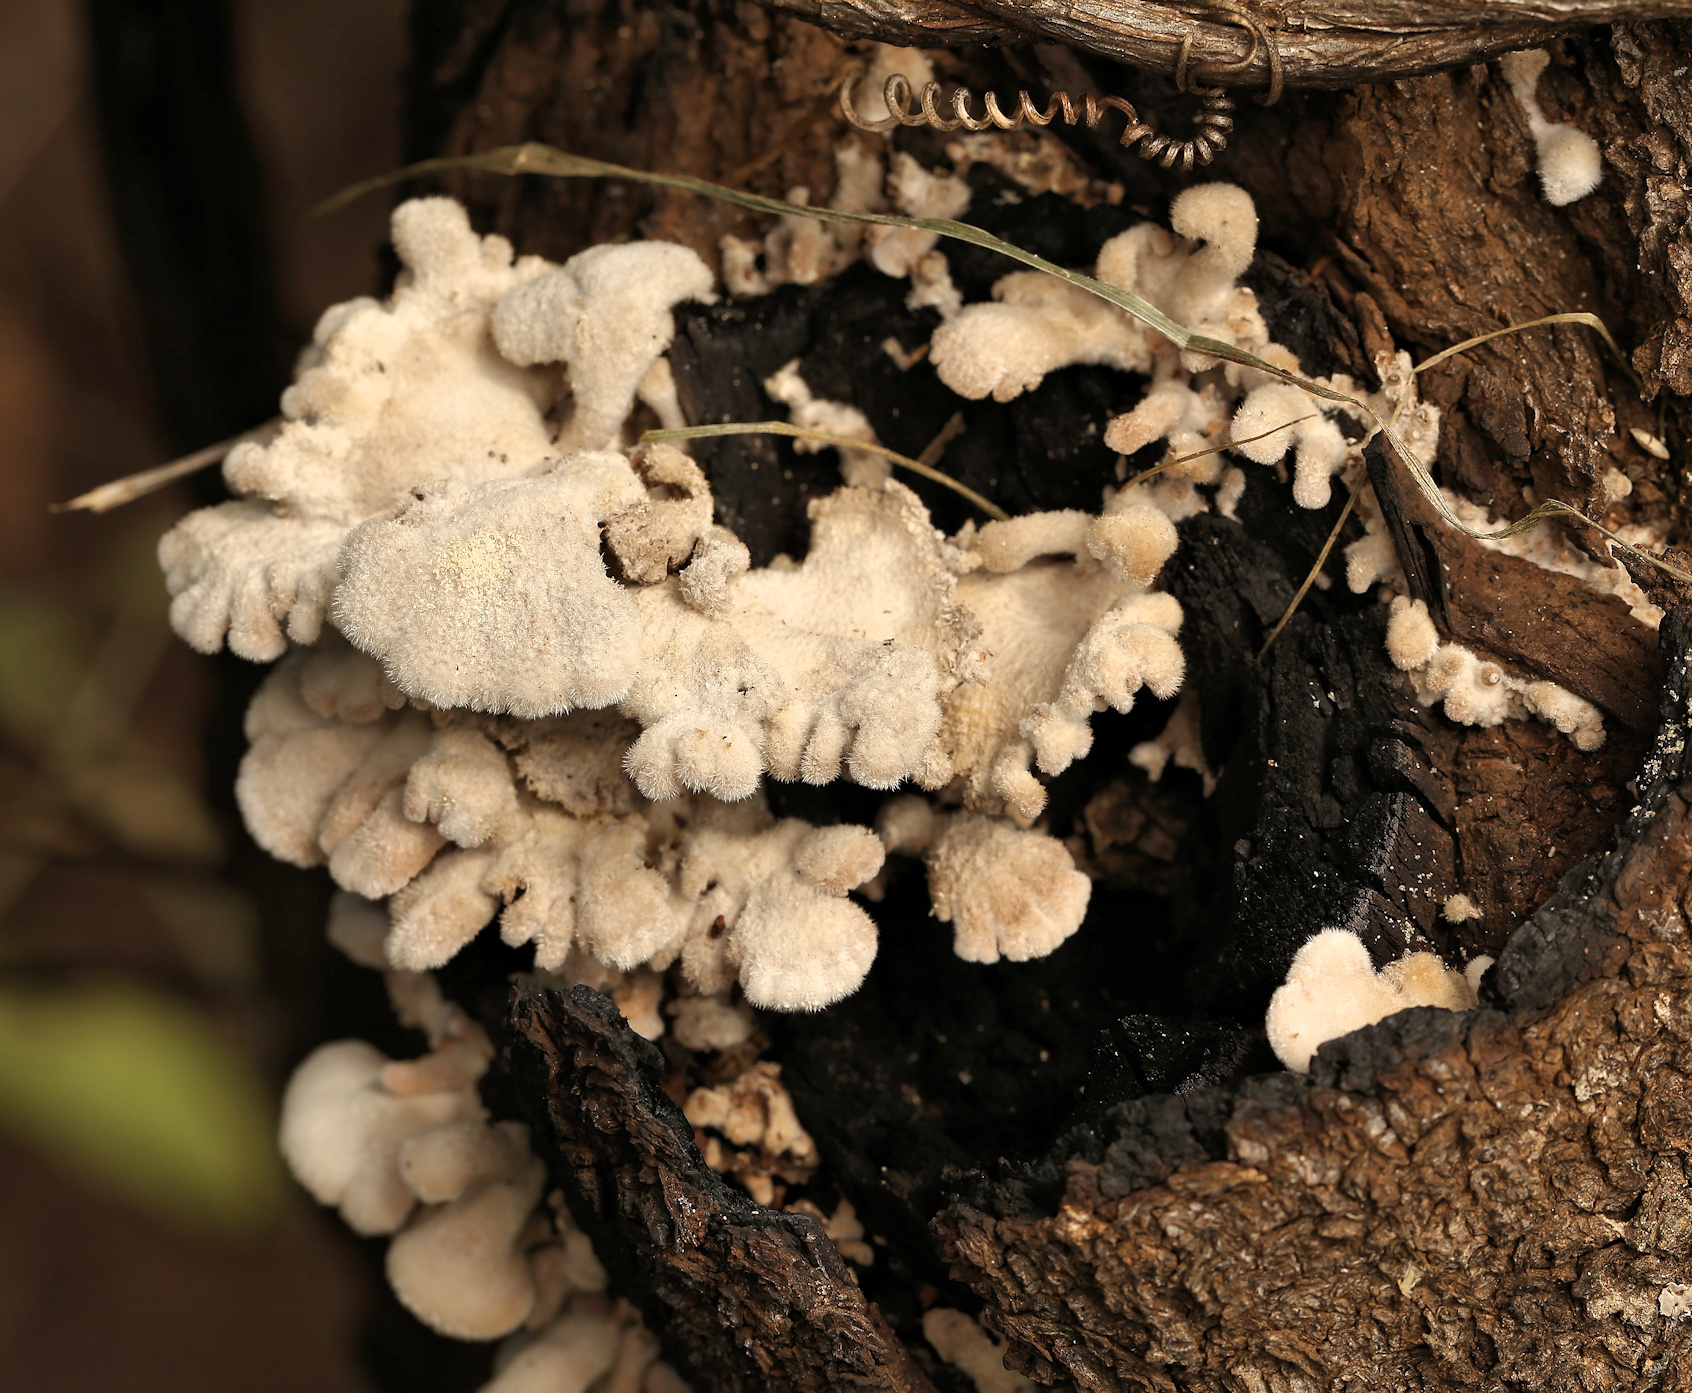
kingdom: Fungi
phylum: Basidiomycota
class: Agaricomycetes
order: Agaricales
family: Schizophyllaceae
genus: Schizophyllum
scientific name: Schizophyllum commune
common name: Common porecrust
